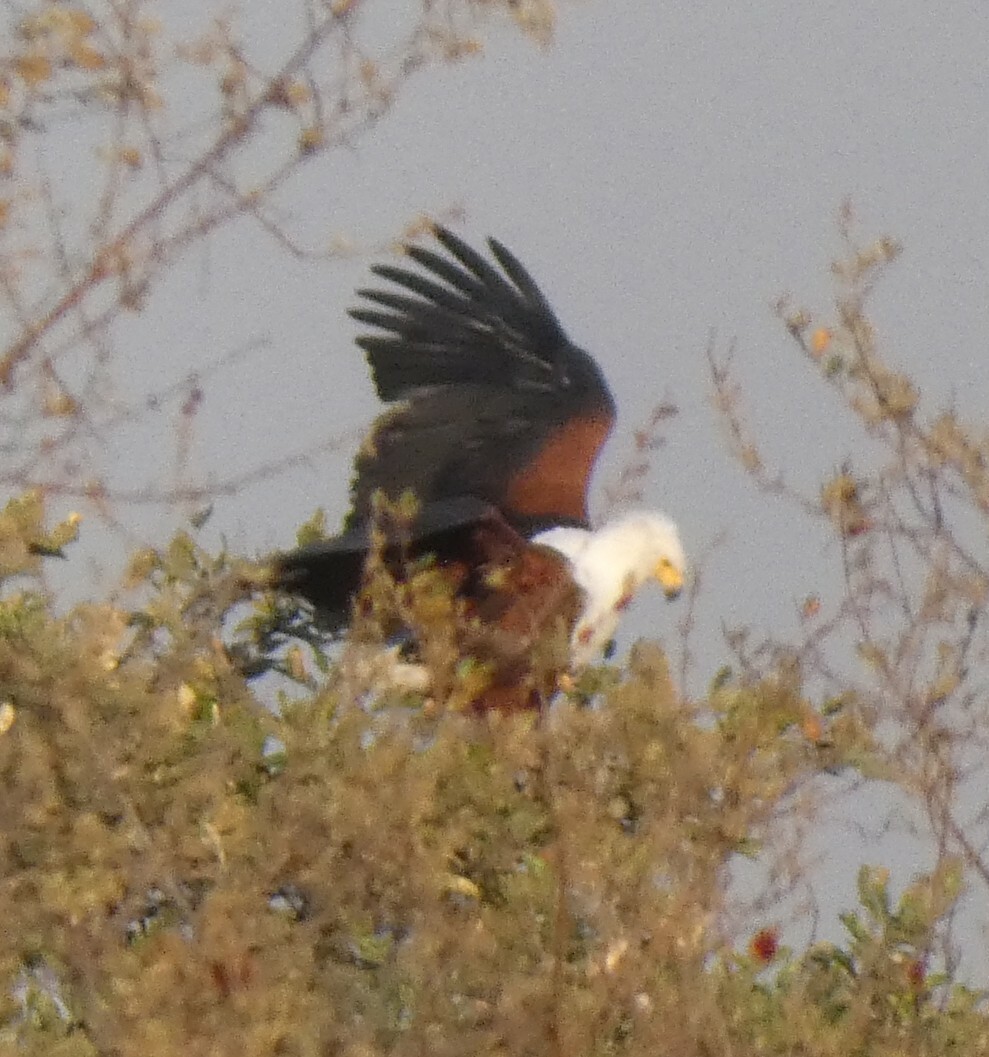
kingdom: Animalia
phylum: Chordata
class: Aves
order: Accipitriformes
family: Accipitridae
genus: Haliaeetus
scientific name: Haliaeetus vocifer
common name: African fish eagle
